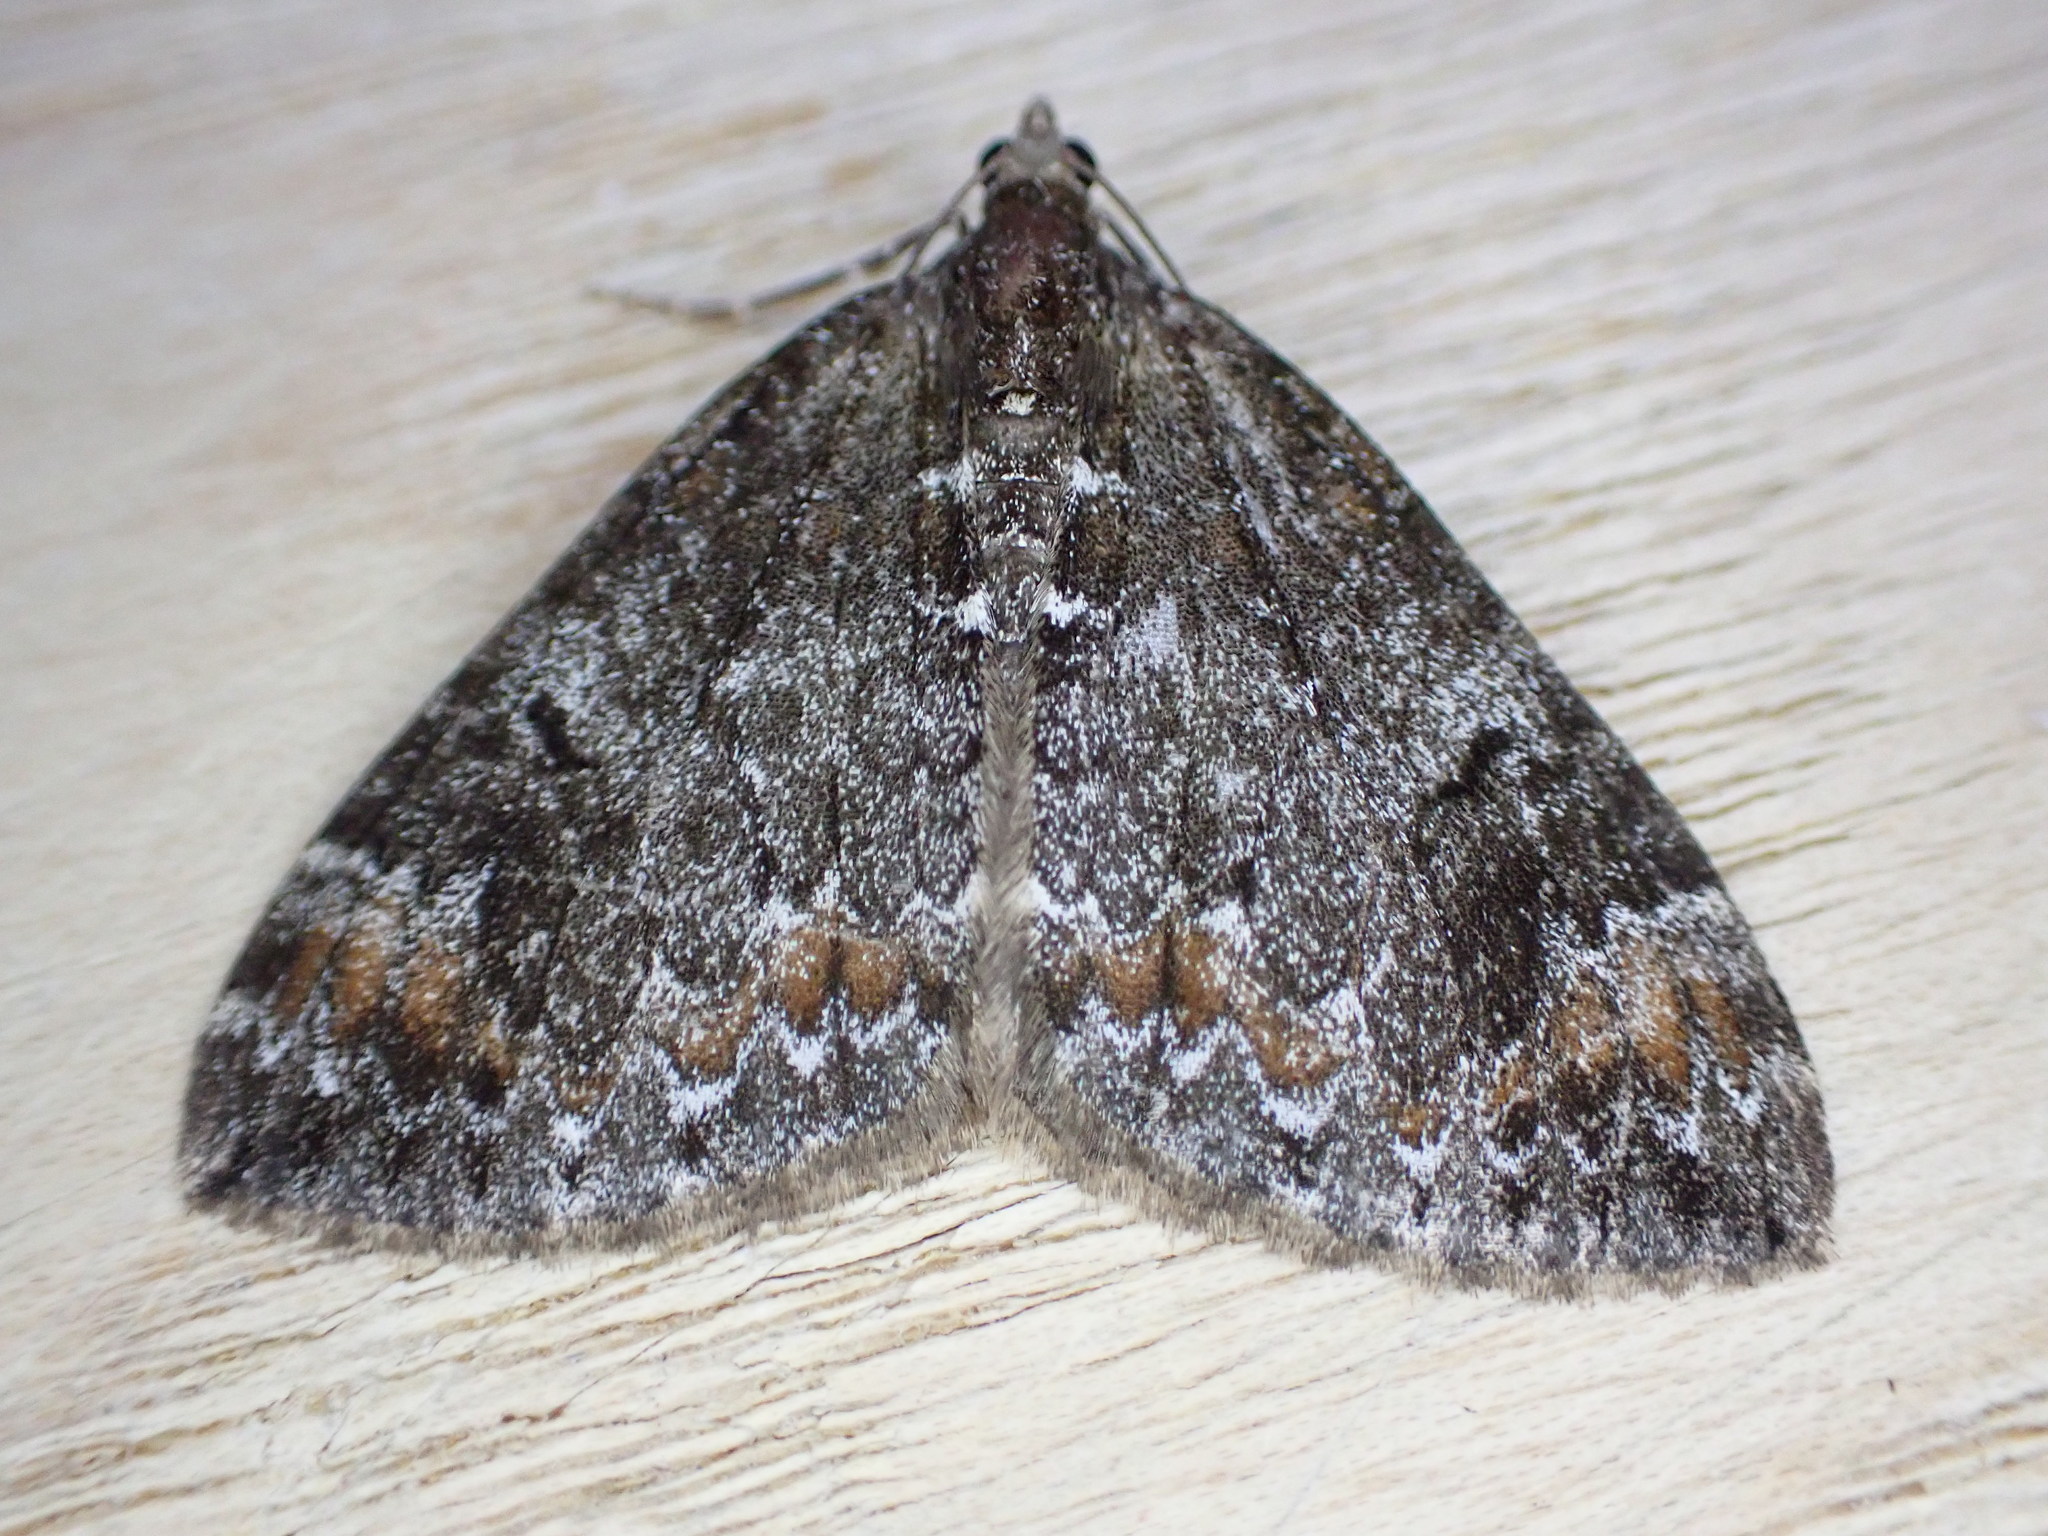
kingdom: Animalia
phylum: Arthropoda
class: Insecta
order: Lepidoptera
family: Geometridae
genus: Dysstroma
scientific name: Dysstroma truncata
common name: Common marbled carpet
